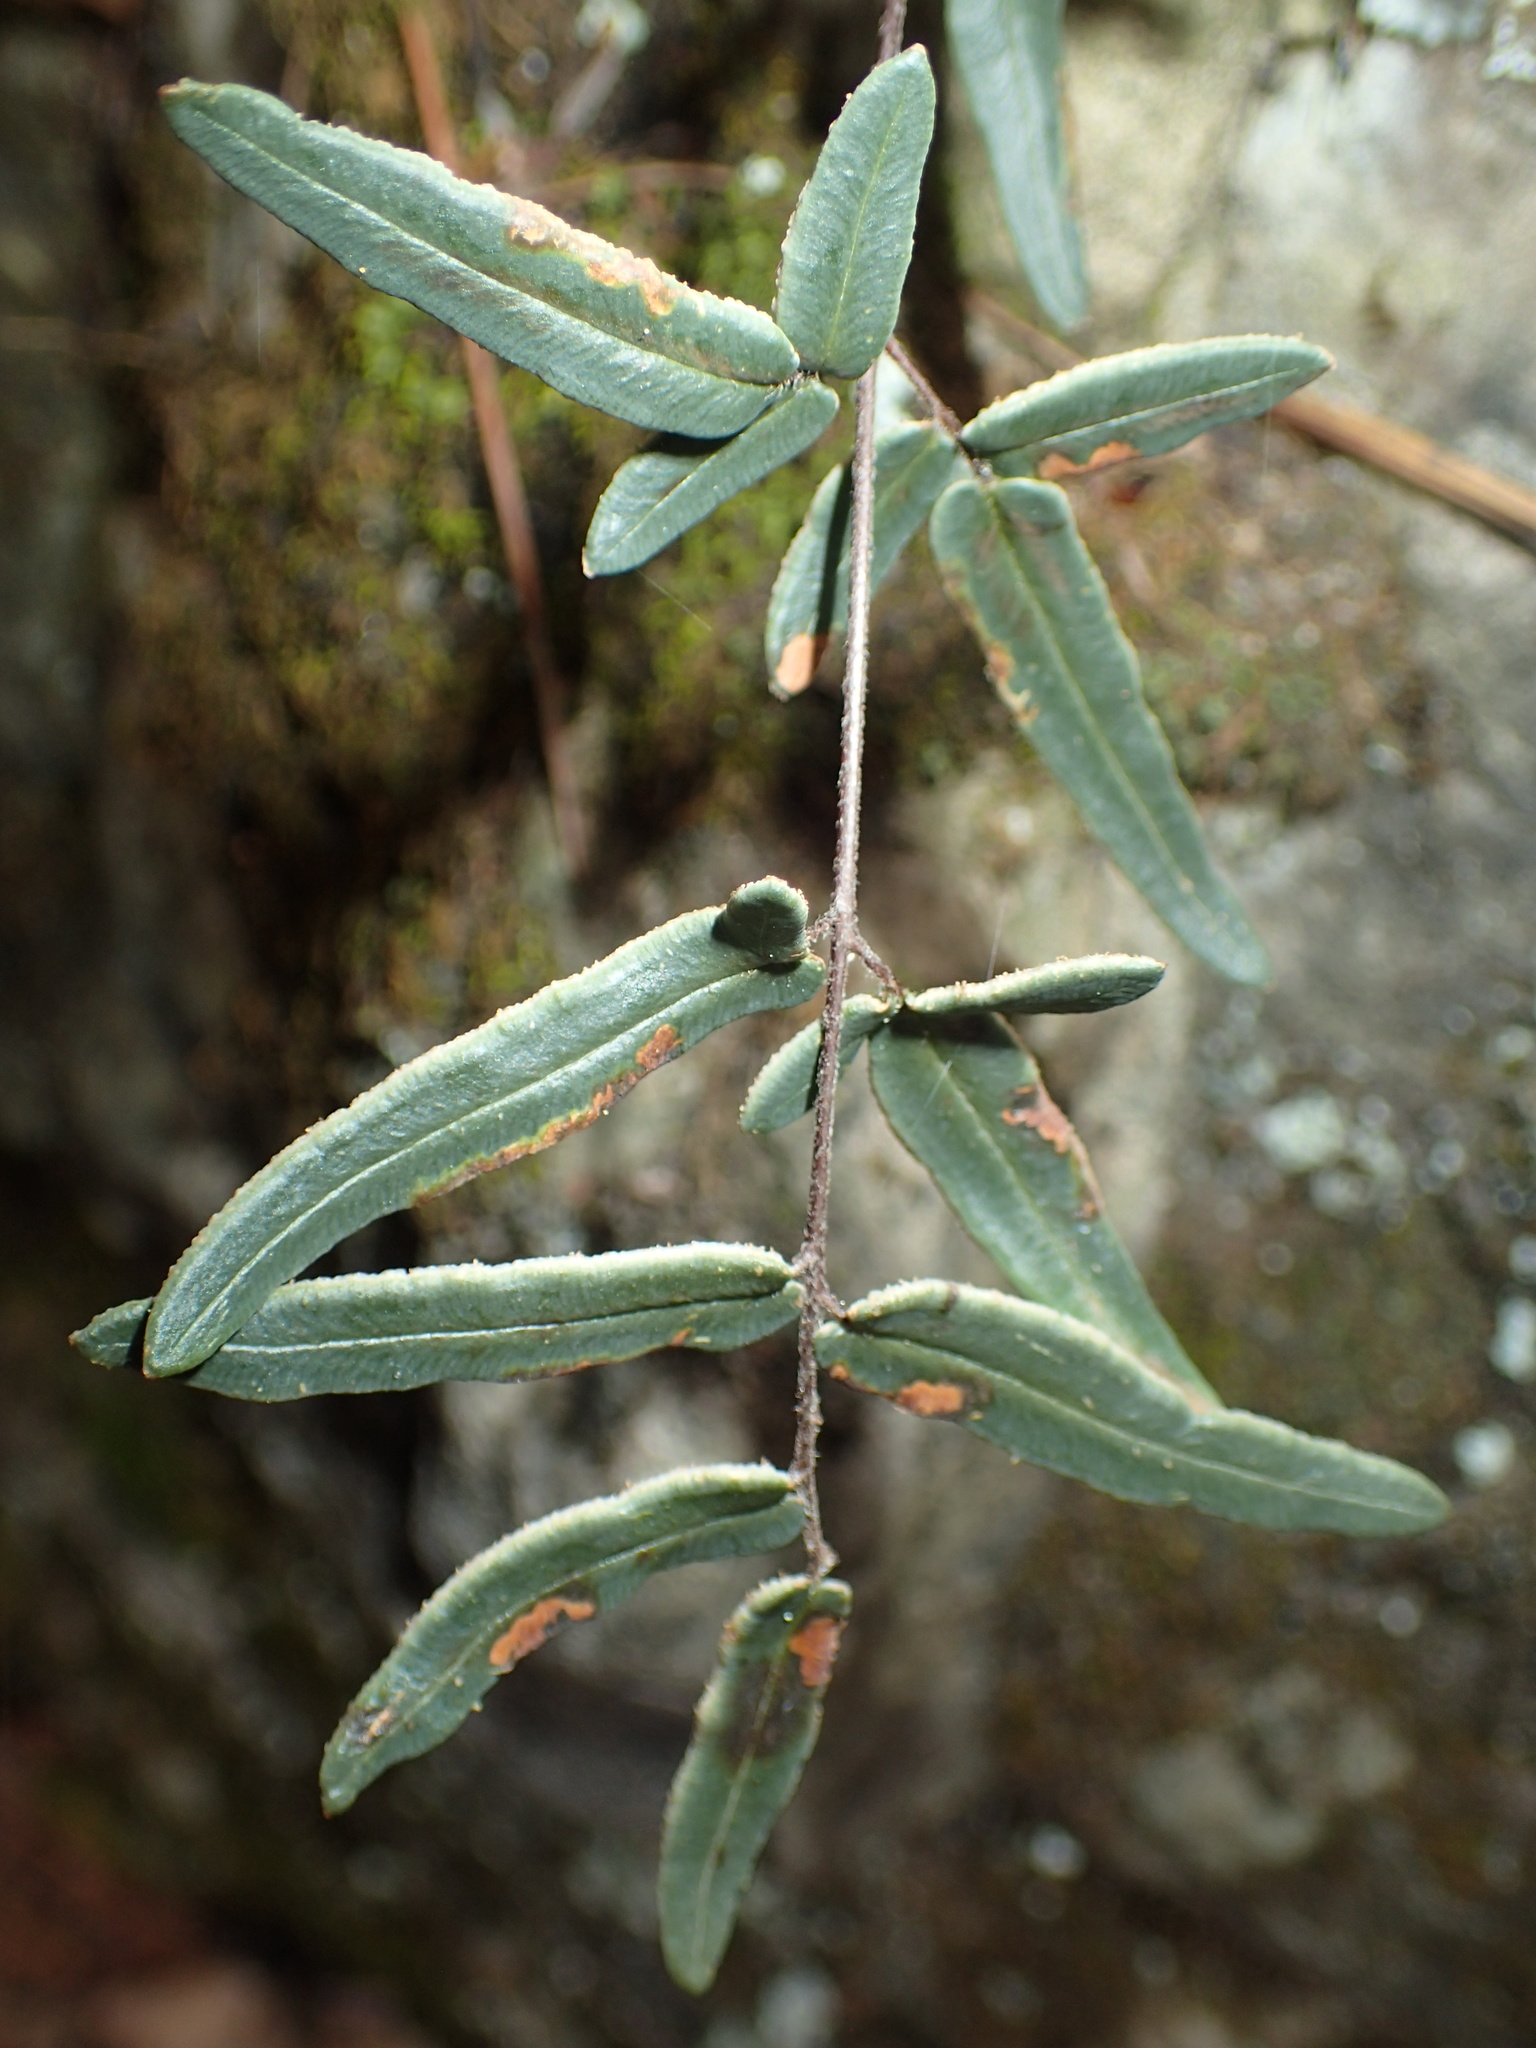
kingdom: Plantae
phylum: Tracheophyta
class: Polypodiopsida
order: Polypodiales
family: Pteridaceae
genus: Pellaea
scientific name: Pellaea atropurpurea
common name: Hairy cliffbrake
